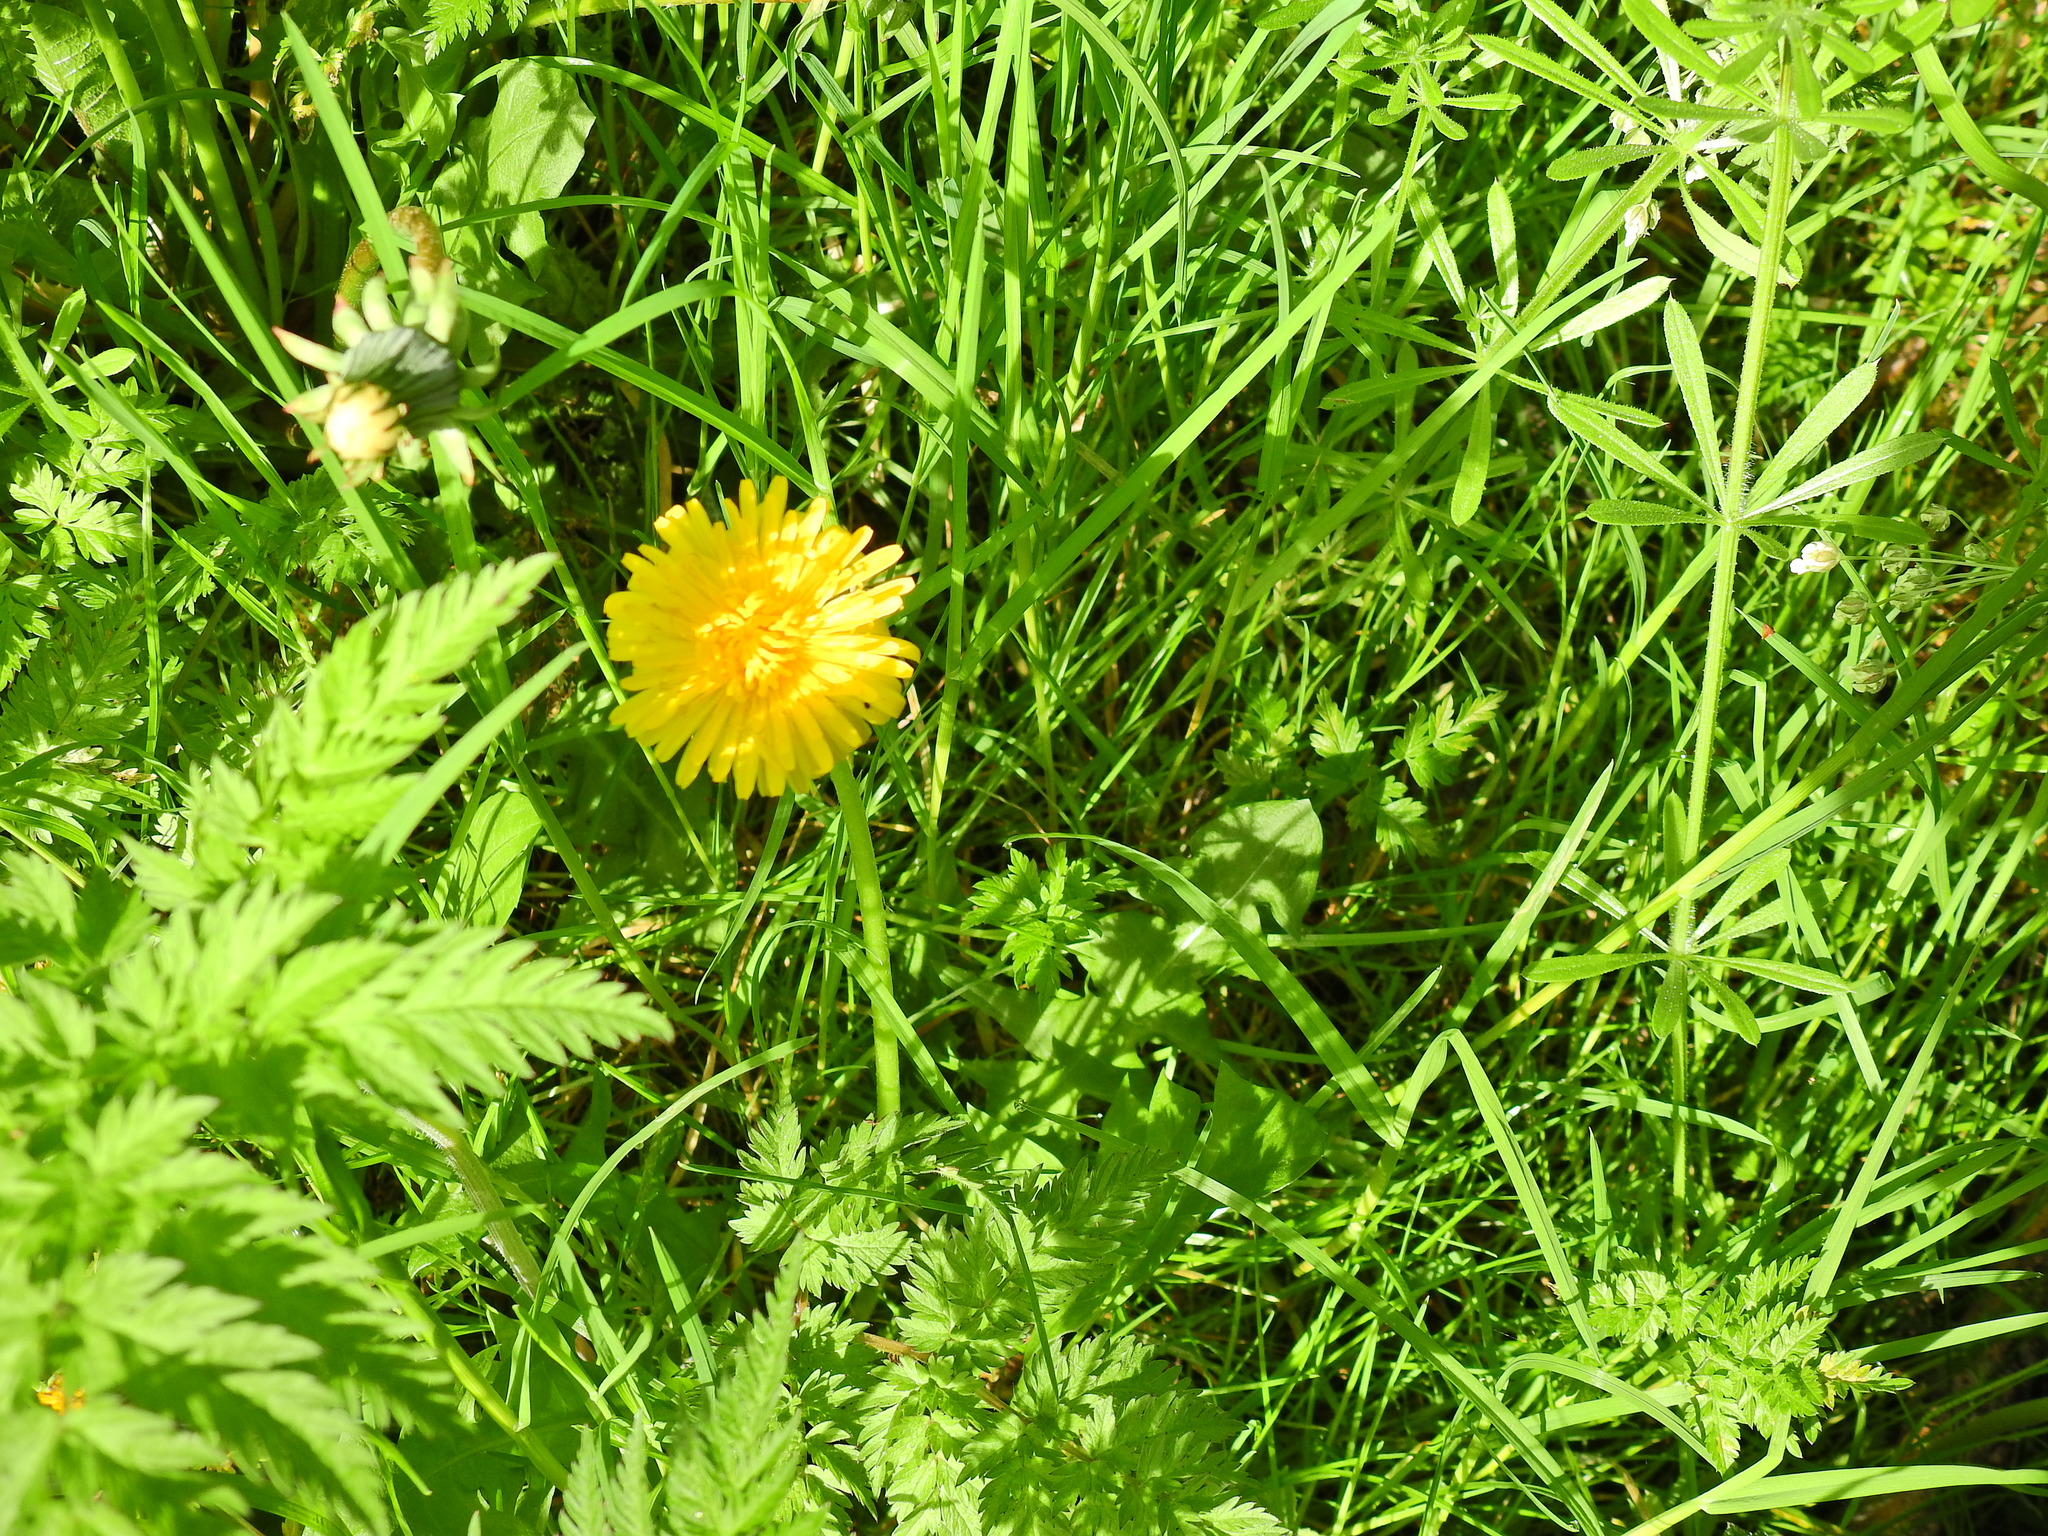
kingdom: Plantae
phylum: Tracheophyta
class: Magnoliopsida
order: Asterales
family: Asteraceae
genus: Taraxacum
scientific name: Taraxacum officinale
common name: Common dandelion
